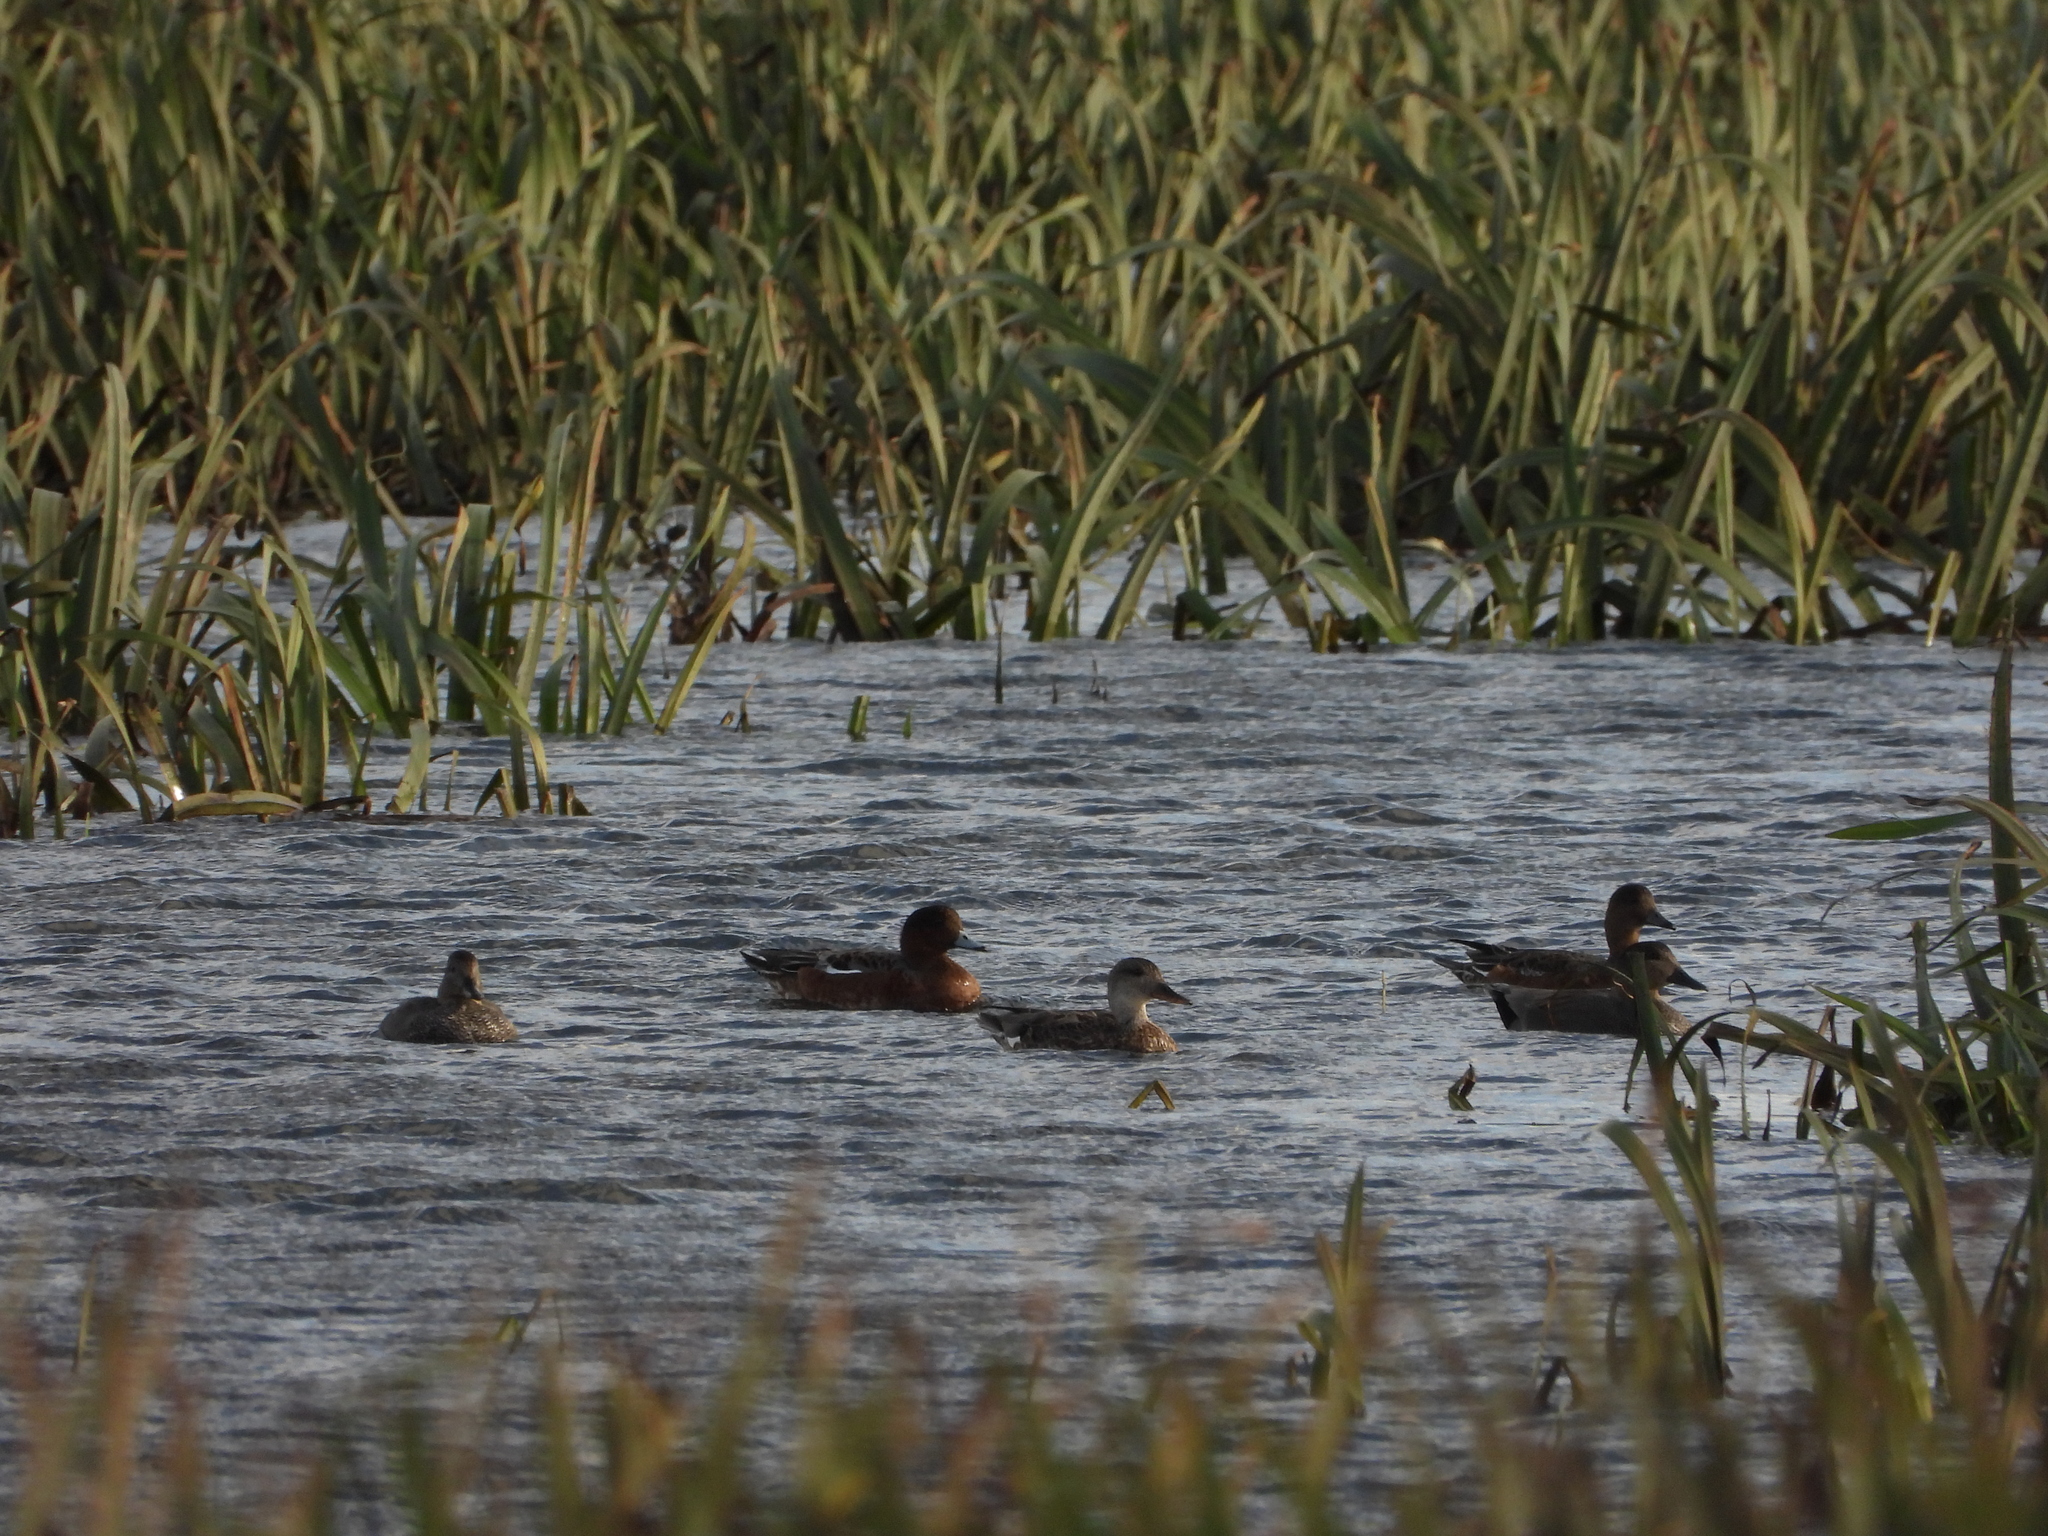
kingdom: Animalia
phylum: Chordata
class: Aves
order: Anseriformes
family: Anatidae
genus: Mareca
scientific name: Mareca penelope
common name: Eurasian wigeon
